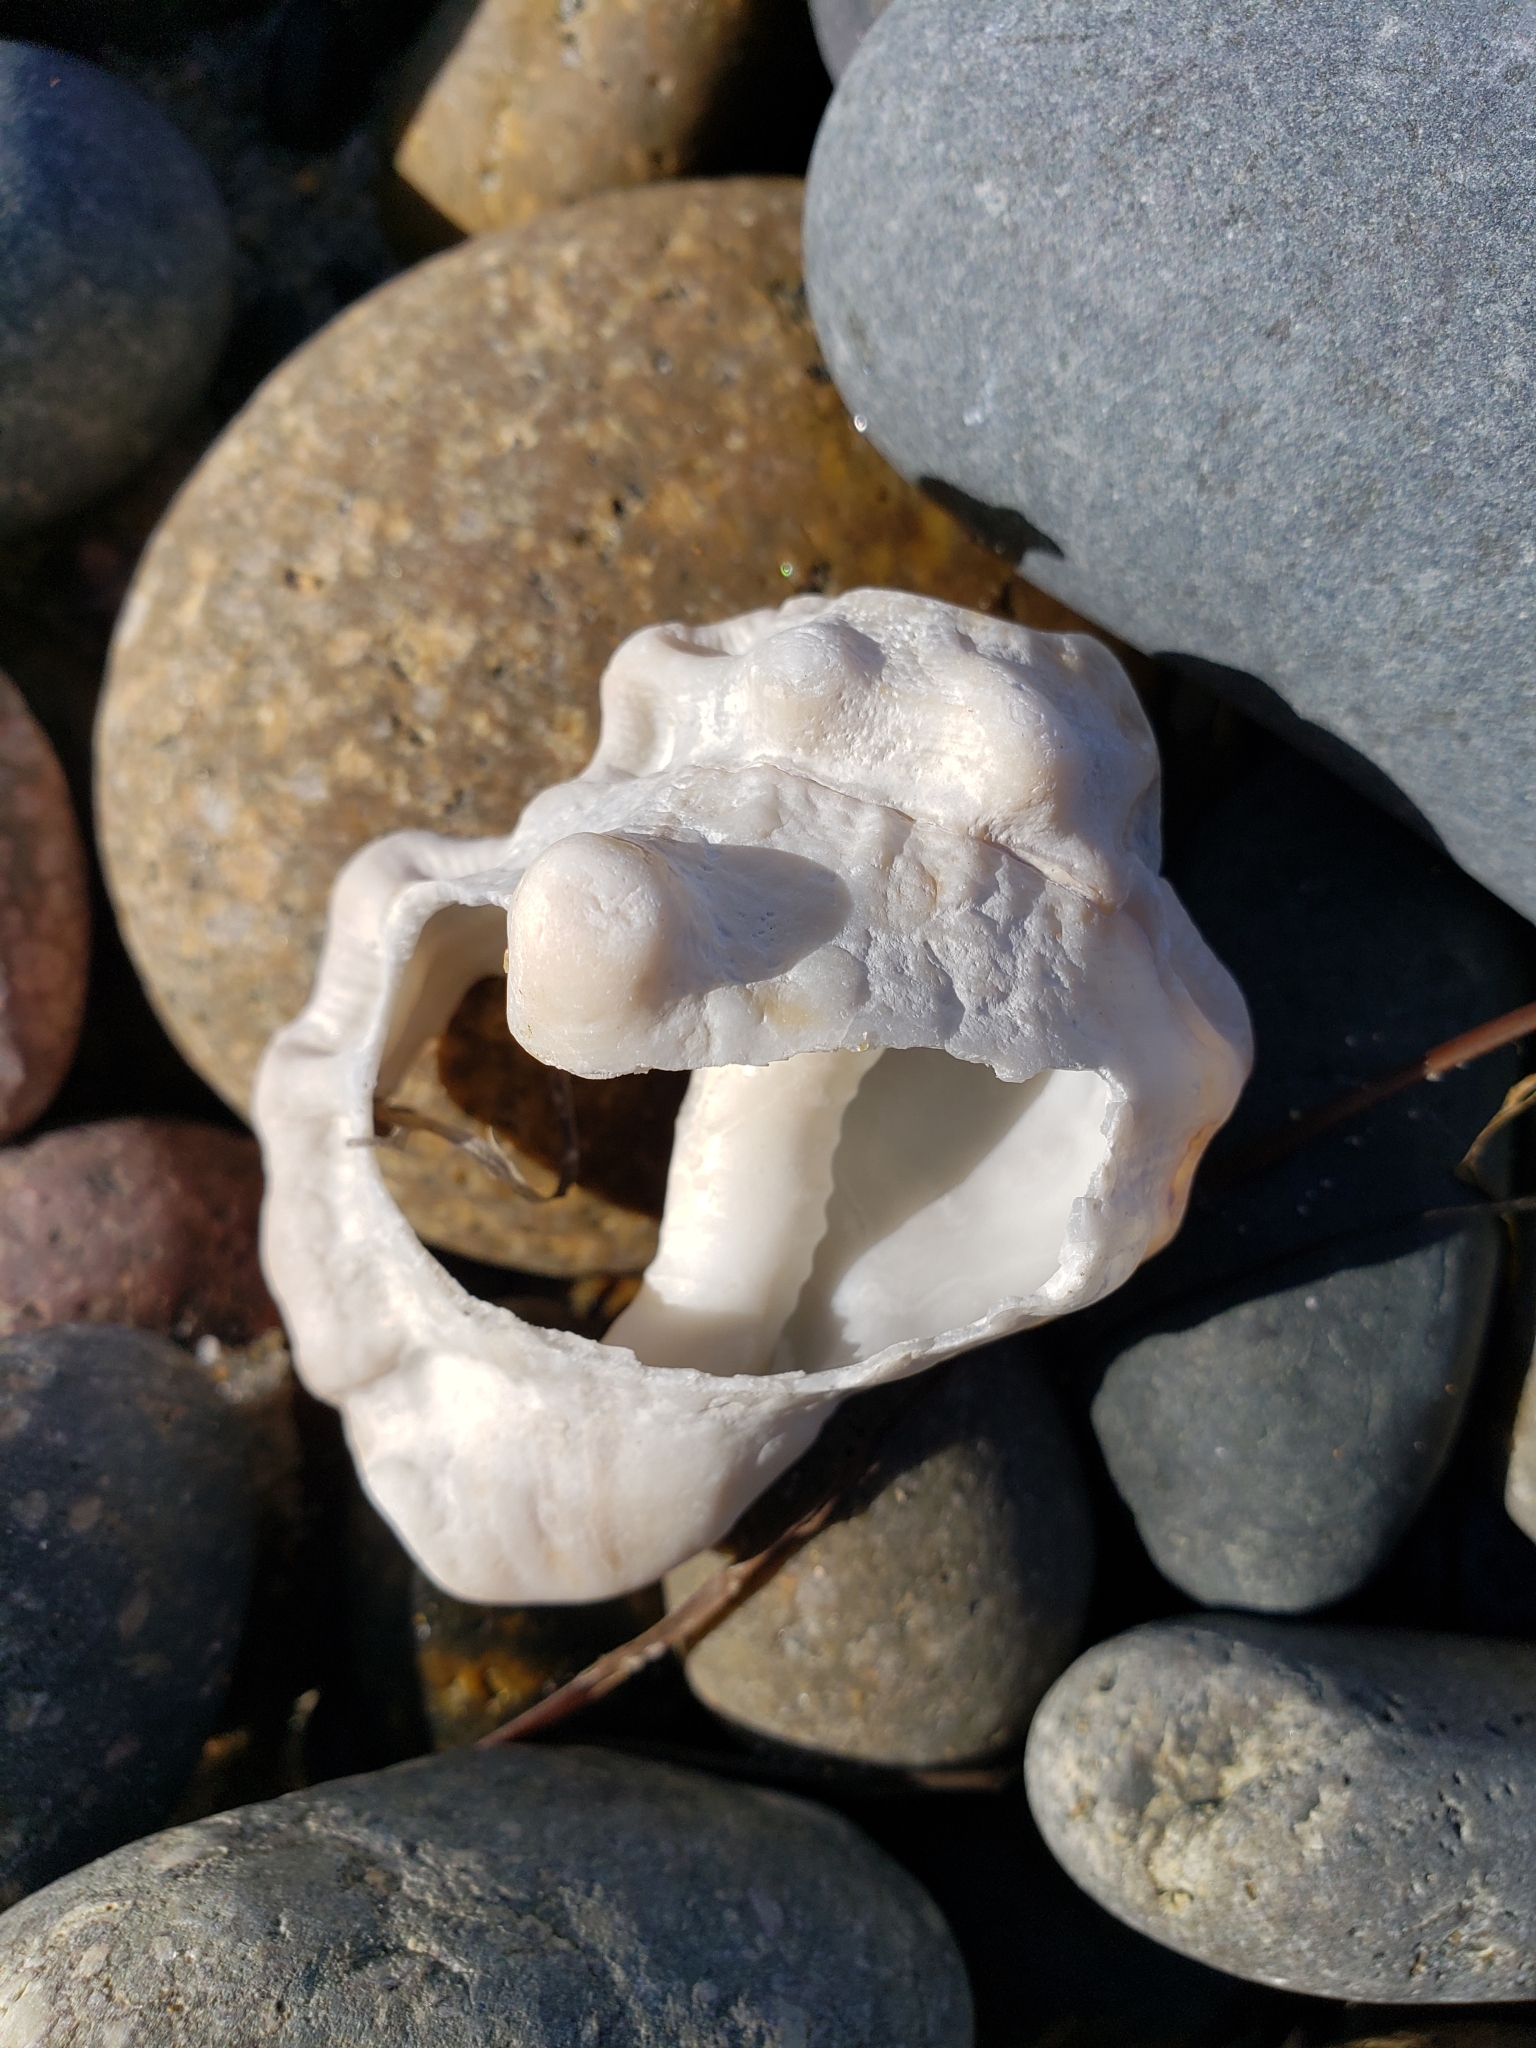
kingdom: Animalia
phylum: Mollusca
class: Gastropoda
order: Littorinimorpha
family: Bursidae
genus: Crossata
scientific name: Crossata californica
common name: California frogsnail
